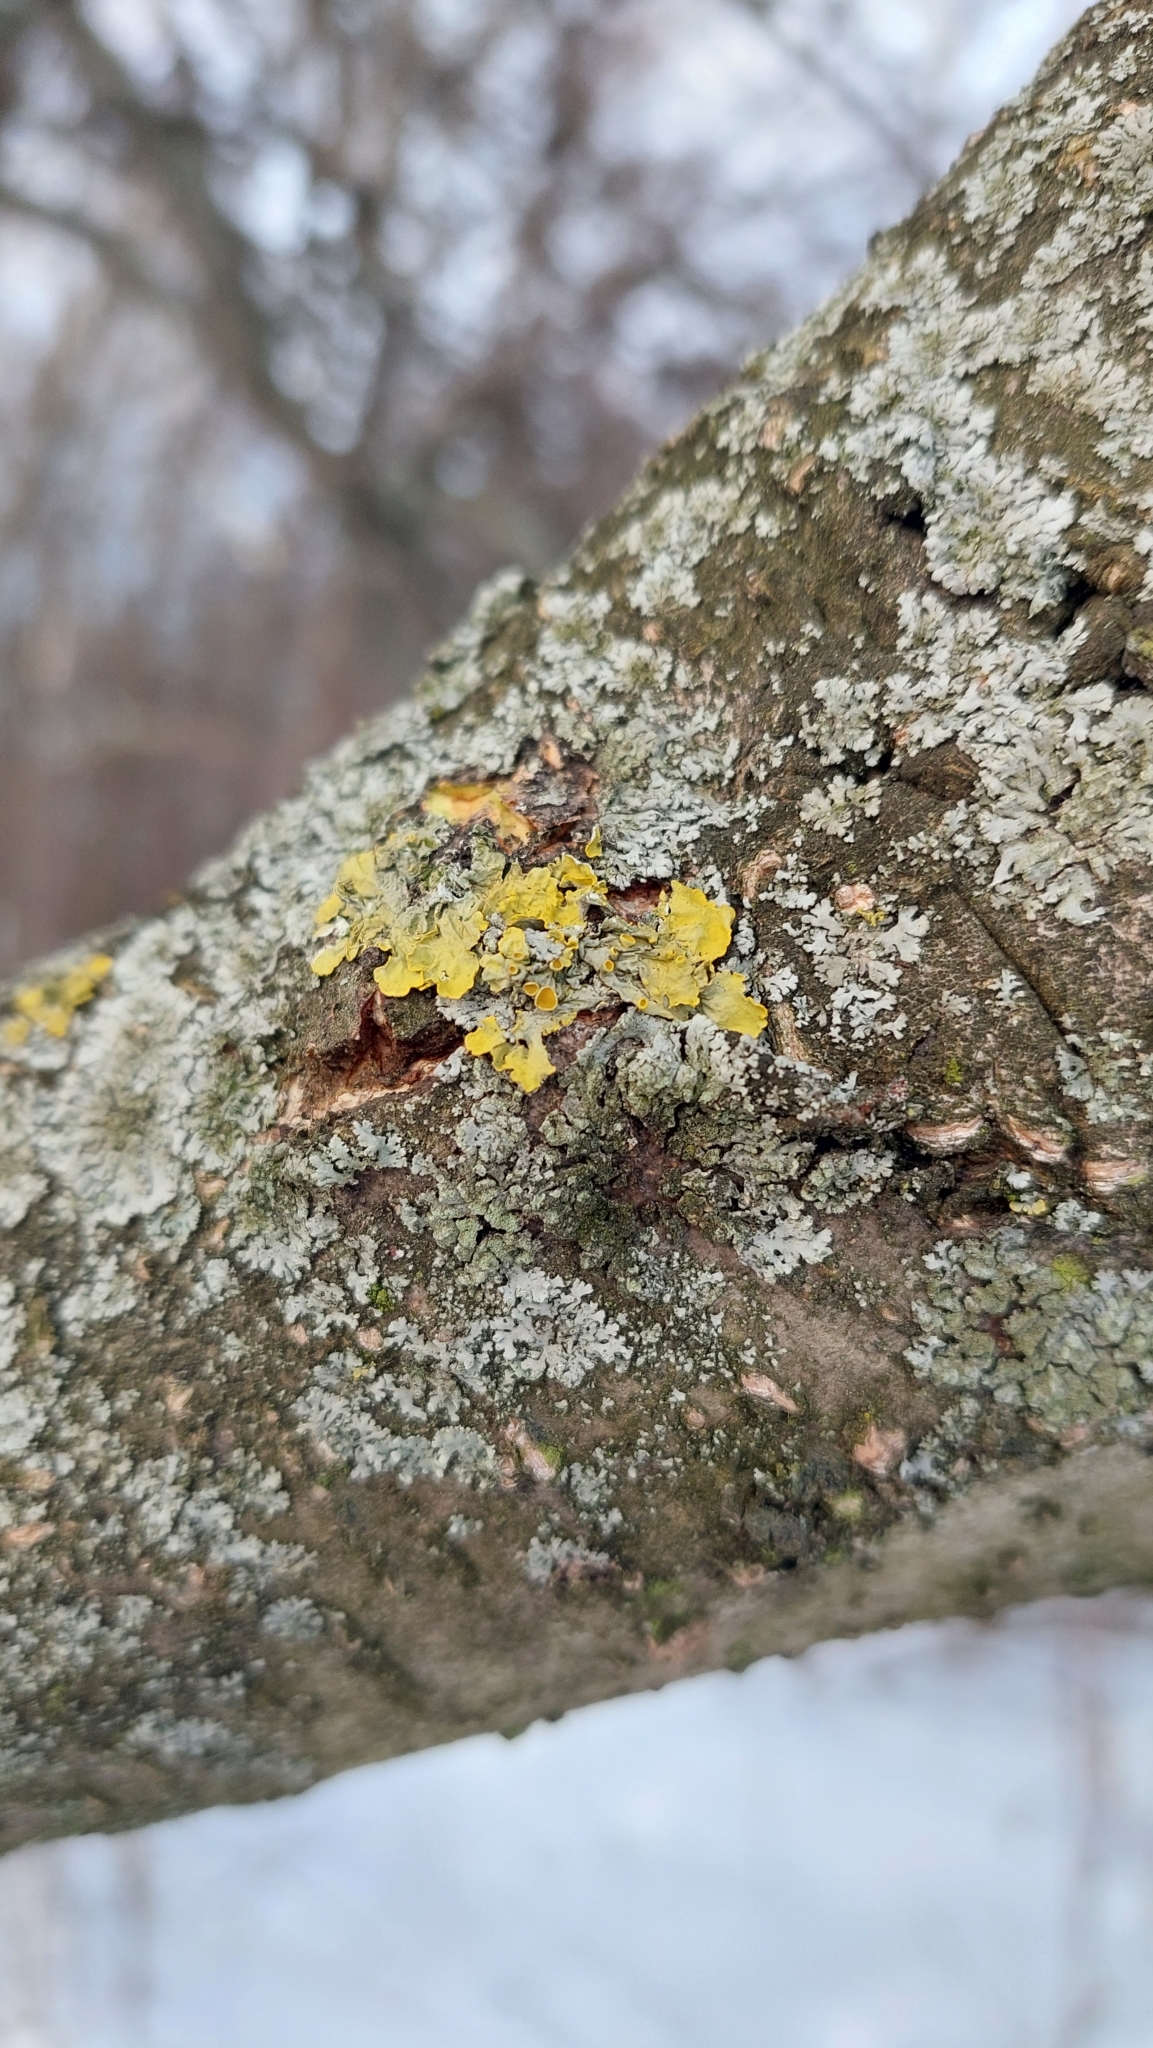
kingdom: Fungi
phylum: Ascomycota
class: Lecanoromycetes
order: Teloschistales
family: Teloschistaceae
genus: Xanthoria
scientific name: Xanthoria parietina
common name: Common orange lichen
